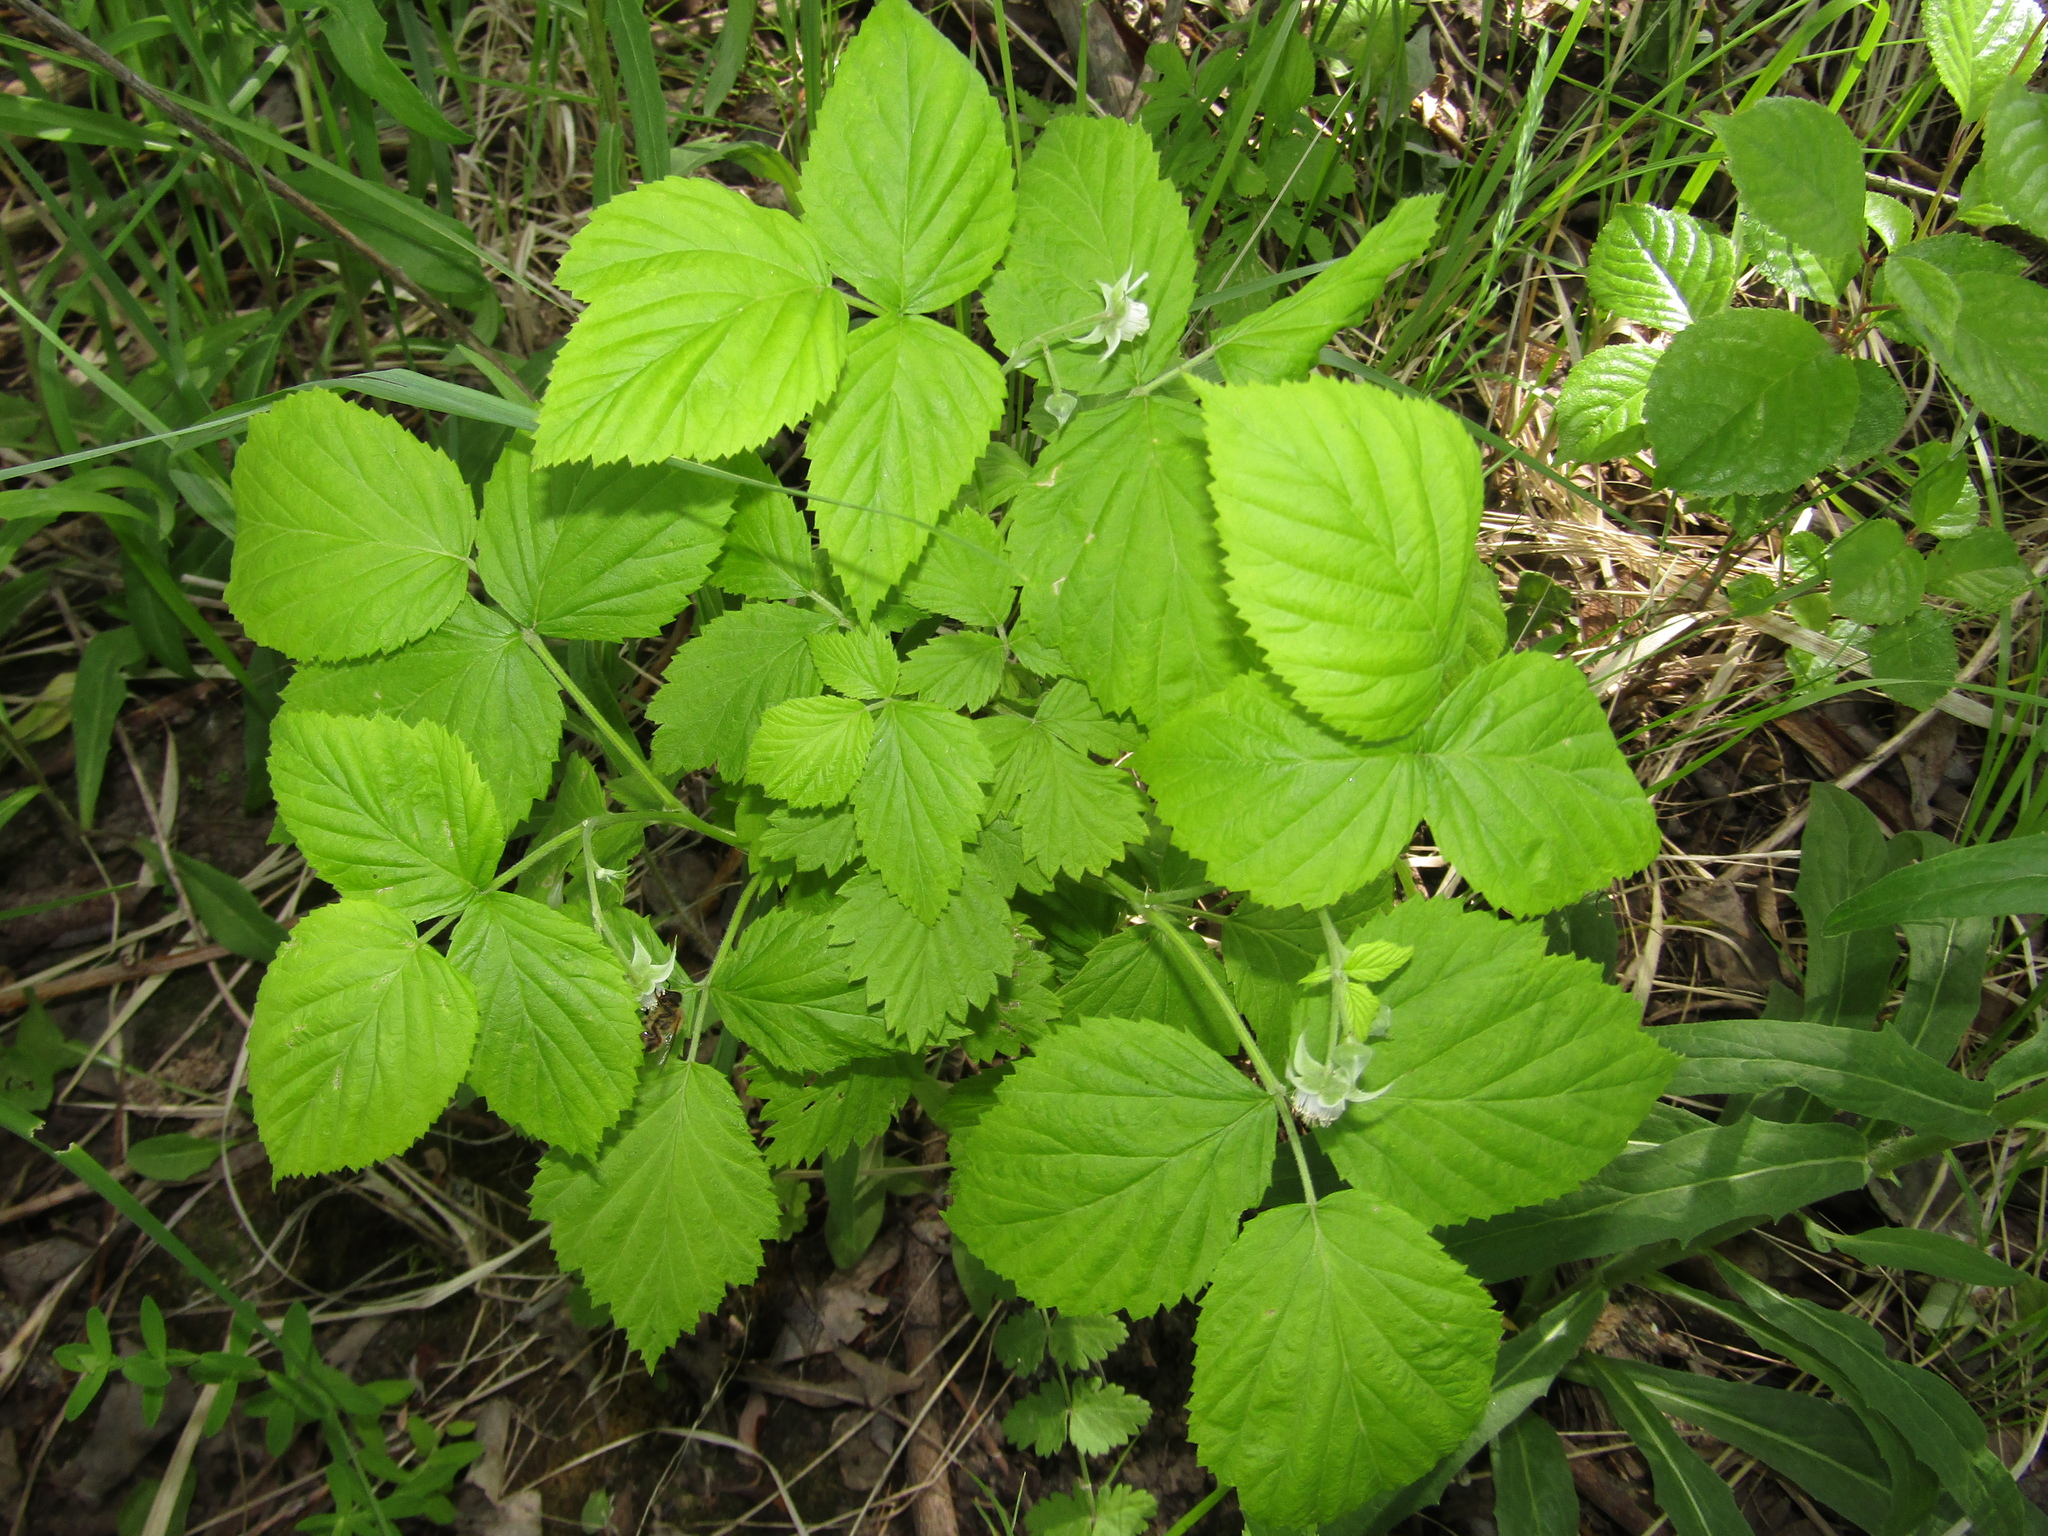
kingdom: Plantae
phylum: Tracheophyta
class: Magnoliopsida
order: Rosales
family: Rosaceae
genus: Rubus
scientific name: Rubus caesius
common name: Dewberry
